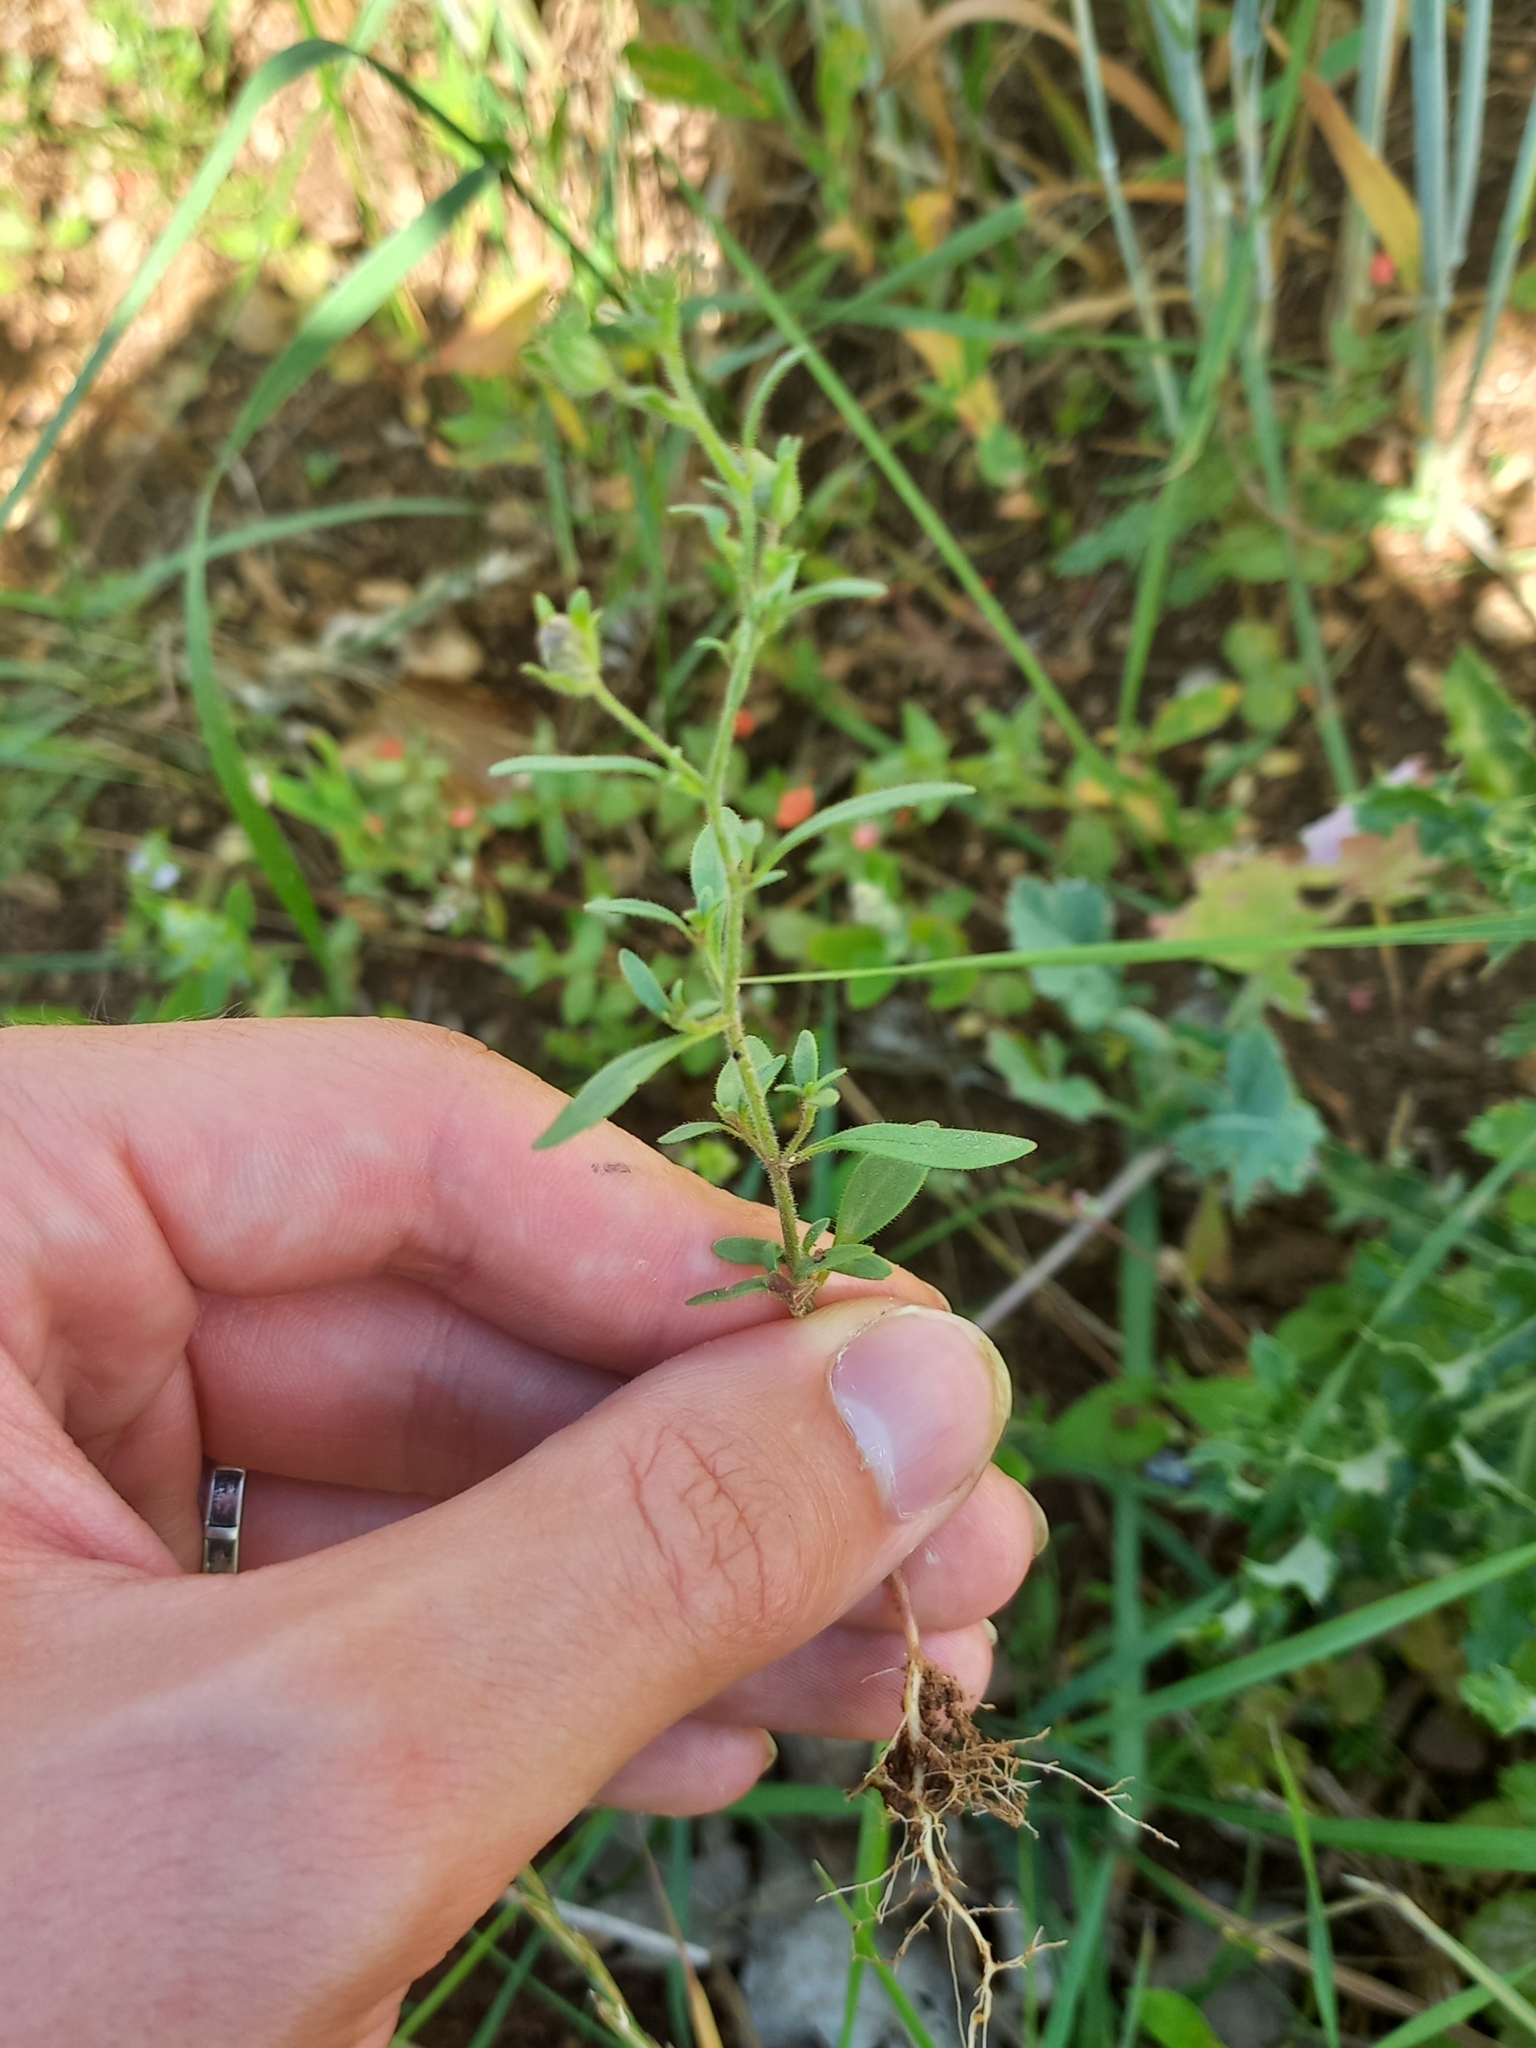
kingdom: Plantae
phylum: Tracheophyta
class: Magnoliopsida
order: Lamiales
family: Plantaginaceae
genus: Chaenorhinum
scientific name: Chaenorhinum minus
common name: Dwarf snapdragon
